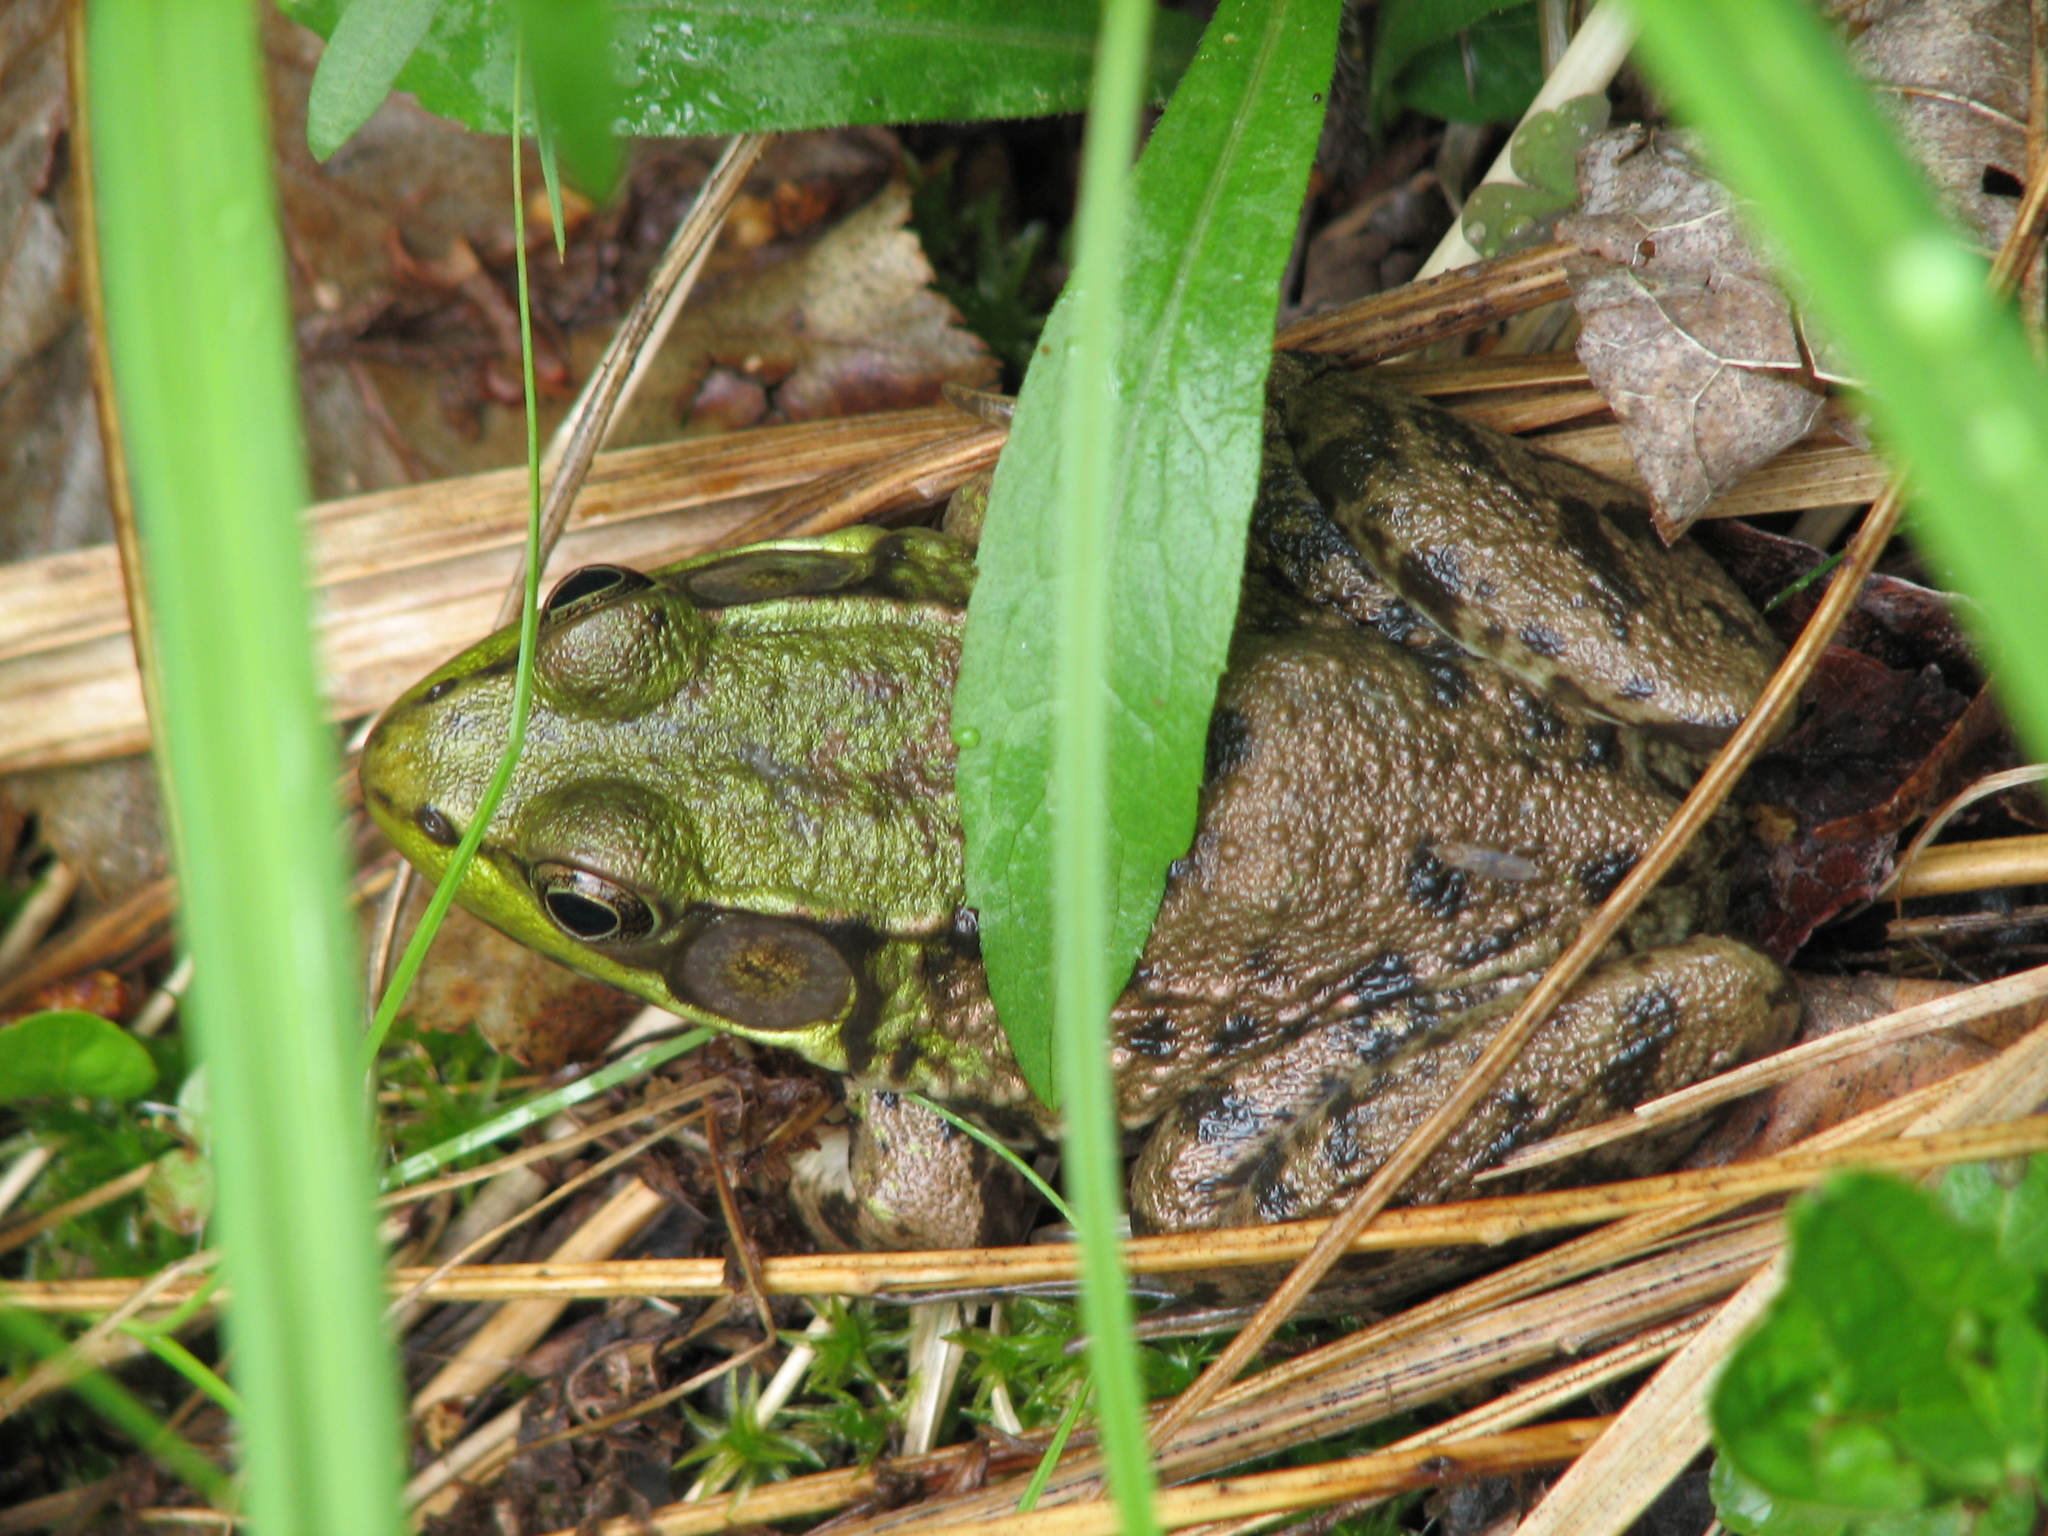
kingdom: Animalia
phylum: Chordata
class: Amphibia
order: Anura
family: Ranidae
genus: Lithobates
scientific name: Lithobates clamitans
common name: Green frog
